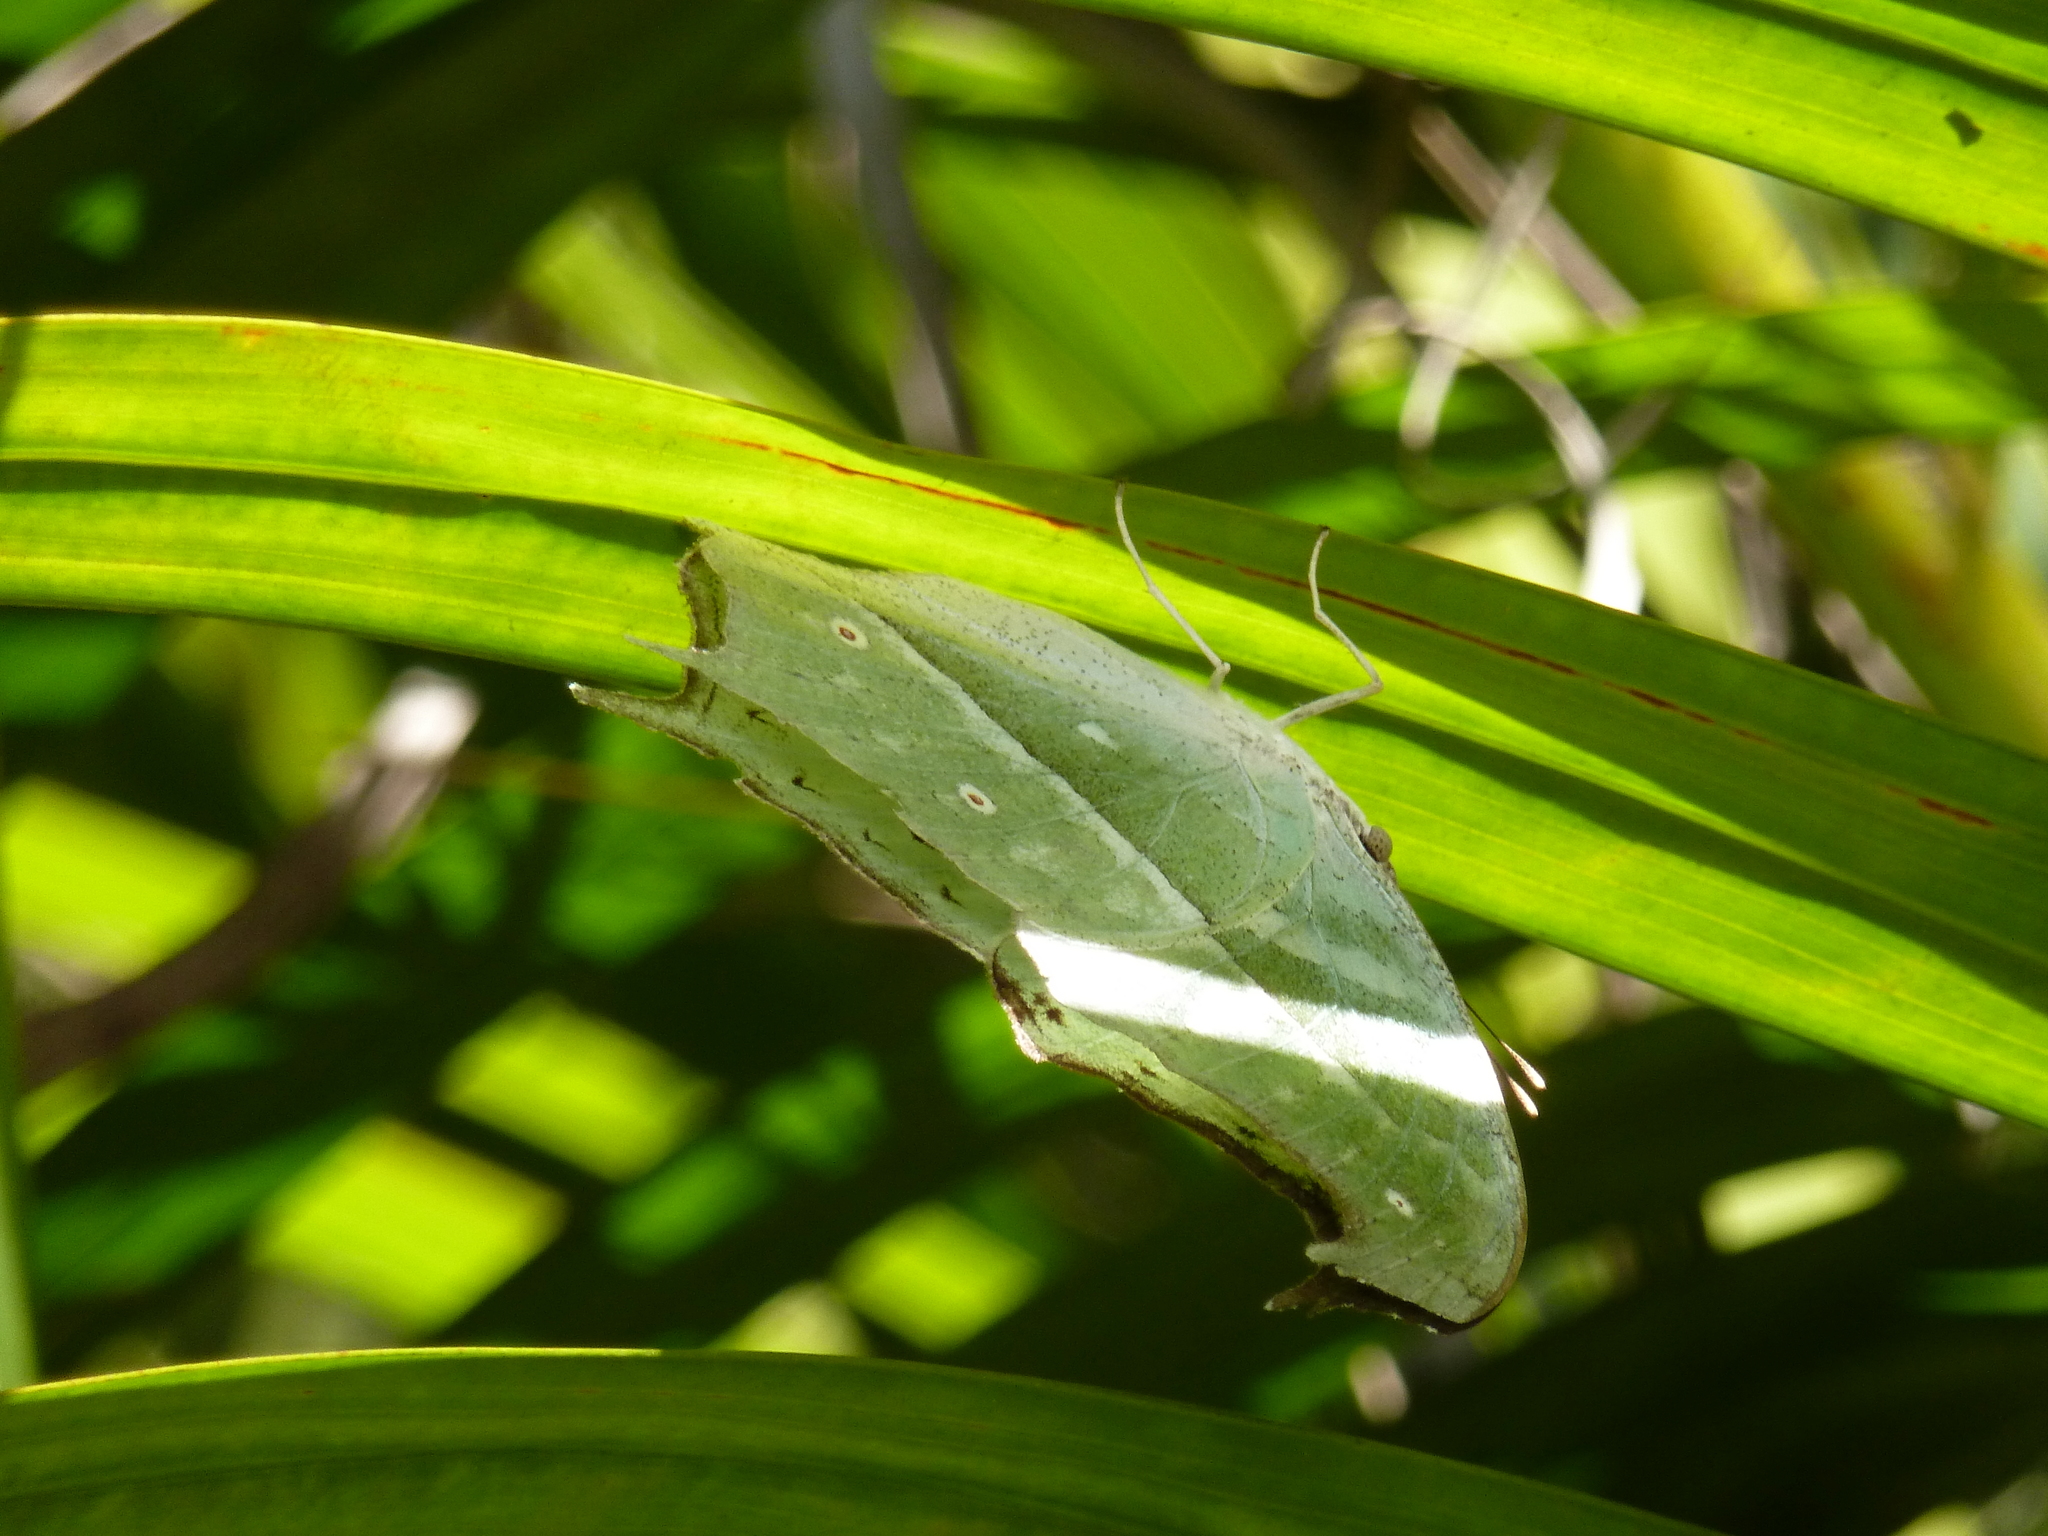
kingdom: Animalia
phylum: Arthropoda
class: Insecta
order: Lepidoptera
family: Nymphalidae
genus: Salamis
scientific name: Salamis Protogoniomorpha parhassus
